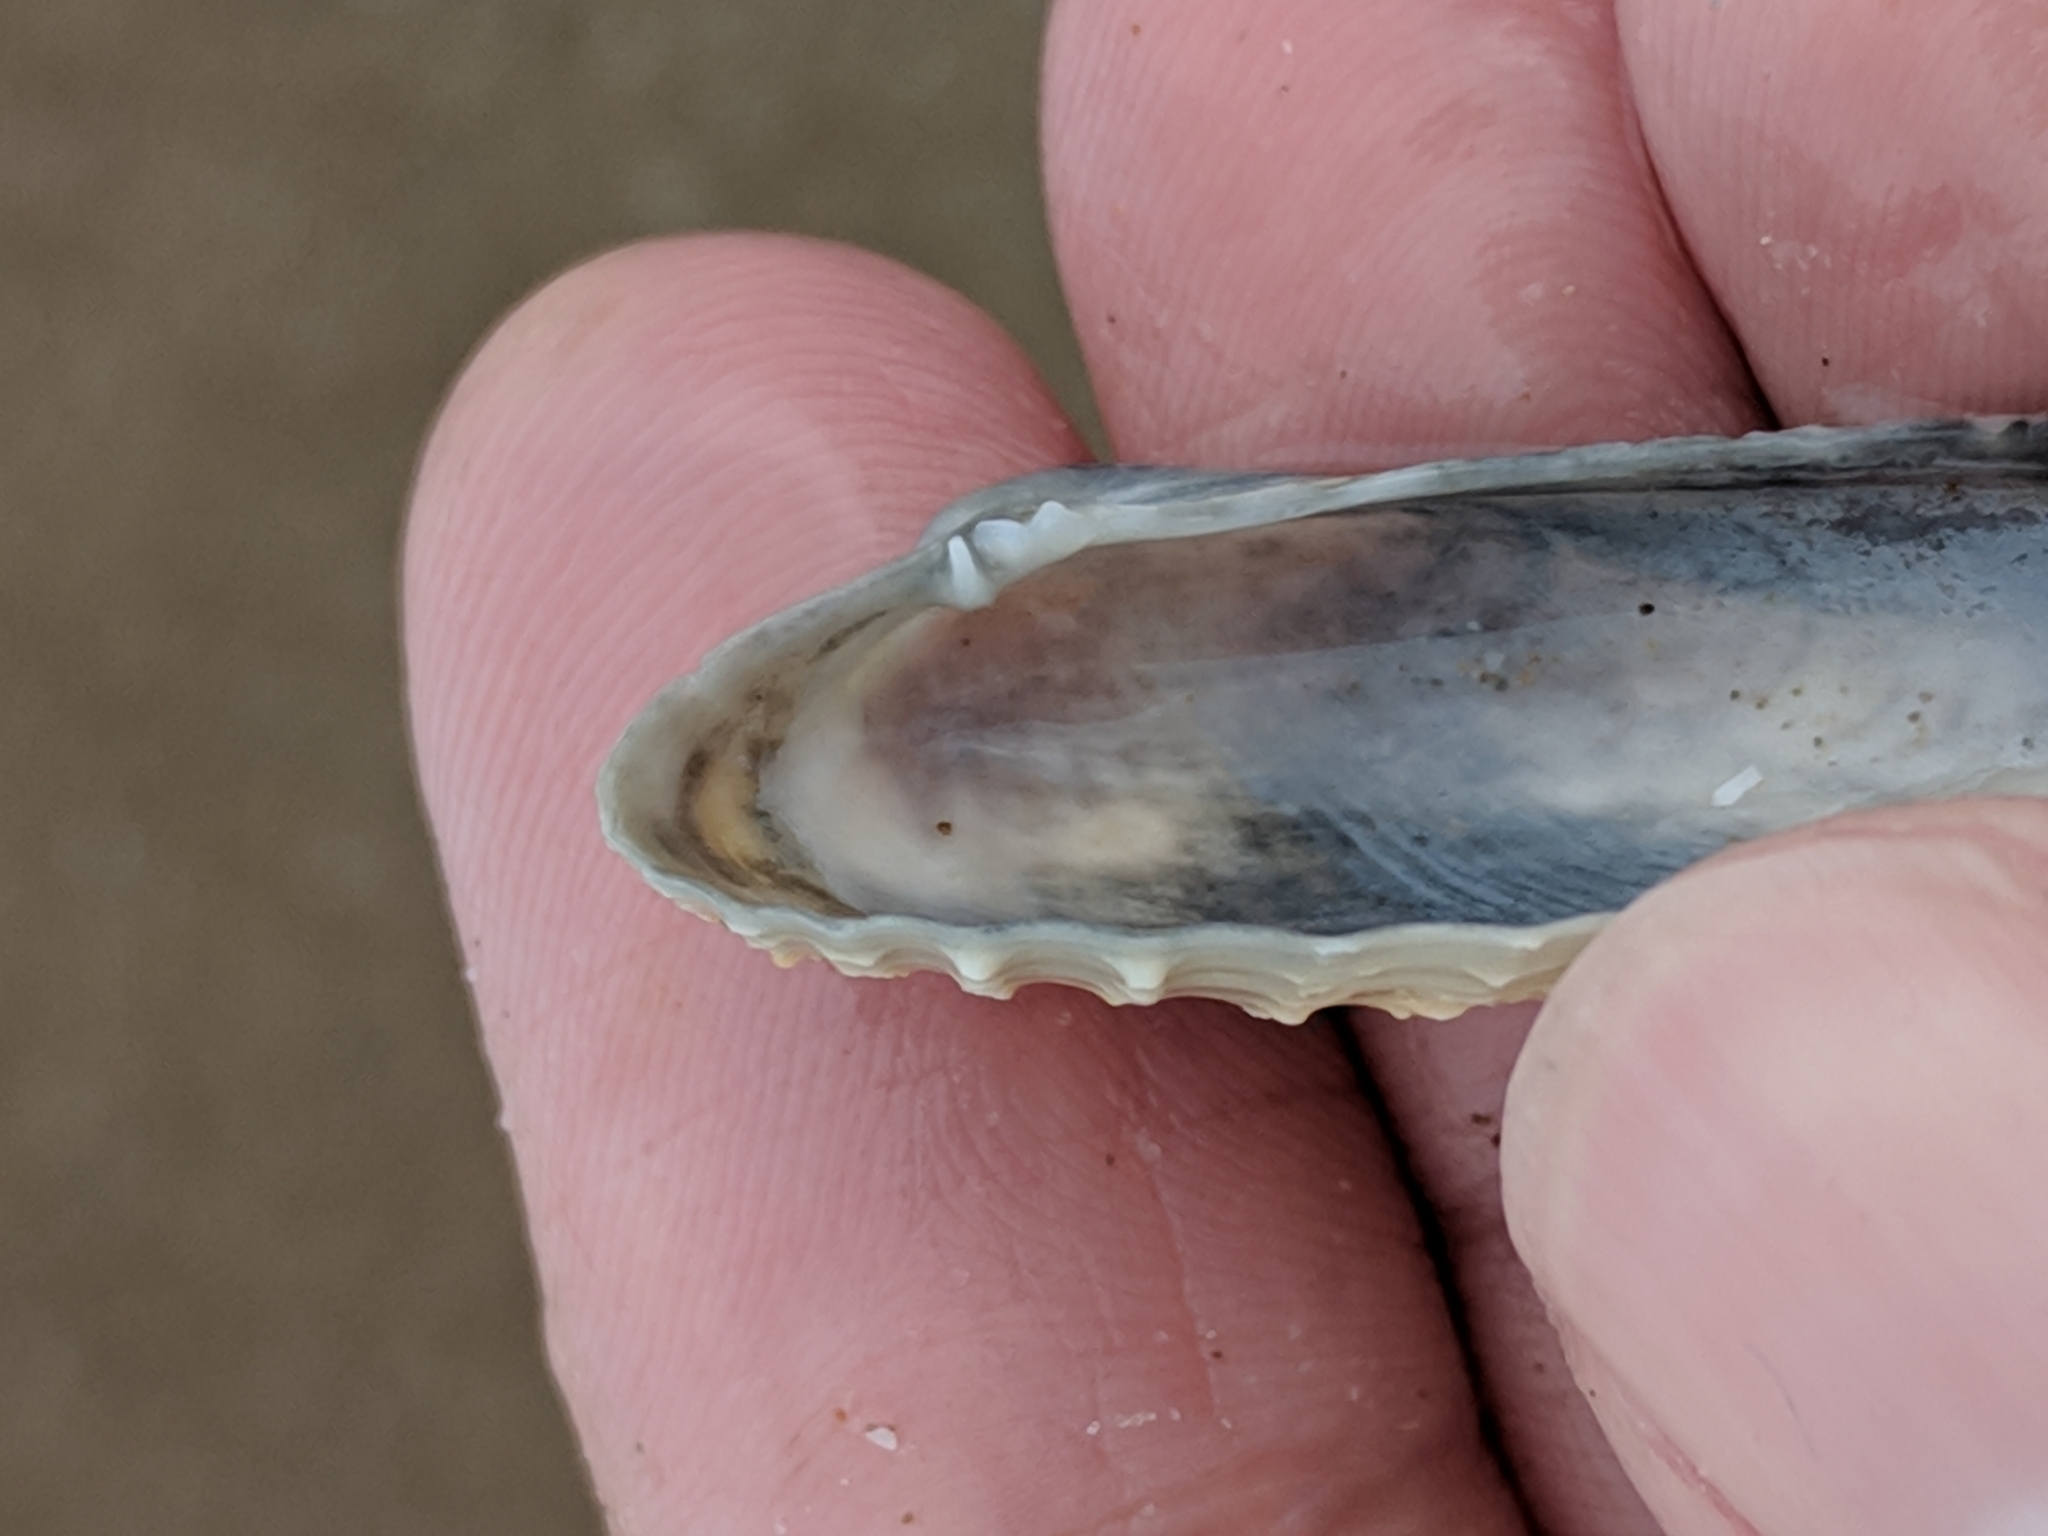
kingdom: Animalia
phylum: Mollusca
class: Bivalvia
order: Venerida
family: Veneridae
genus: Petricolaria
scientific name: Petricolaria pholadiformis
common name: American piddock
